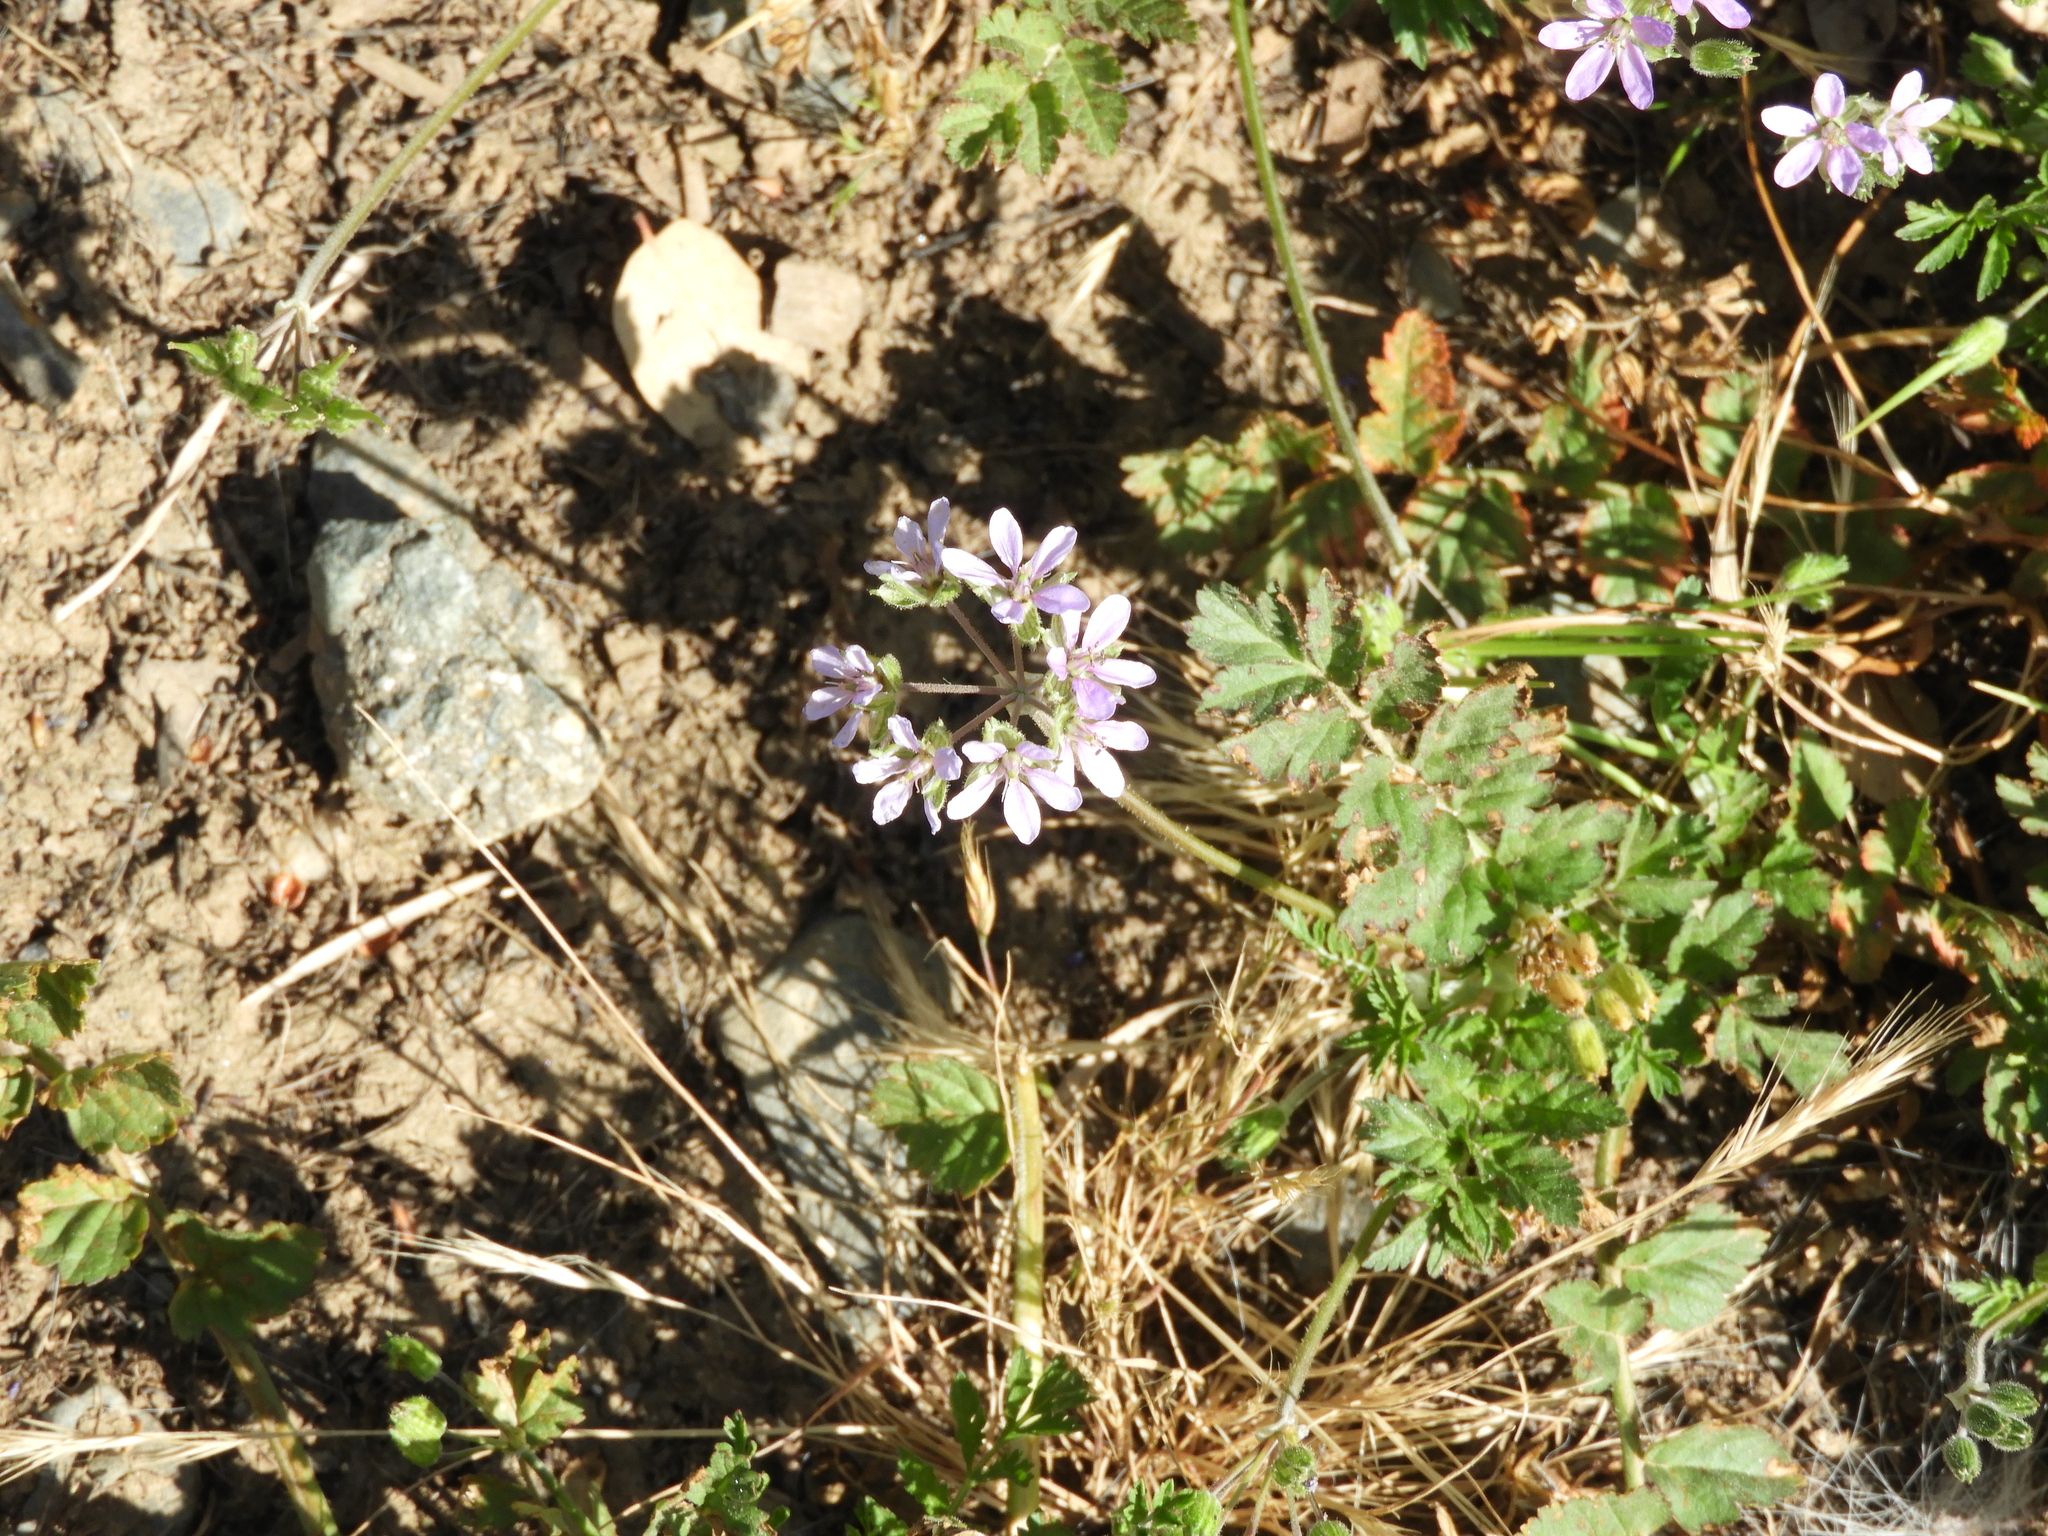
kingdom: Plantae
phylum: Tracheophyta
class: Magnoliopsida
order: Geraniales
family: Geraniaceae
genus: Erodium
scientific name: Erodium moschatum
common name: Musk stork's-bill
